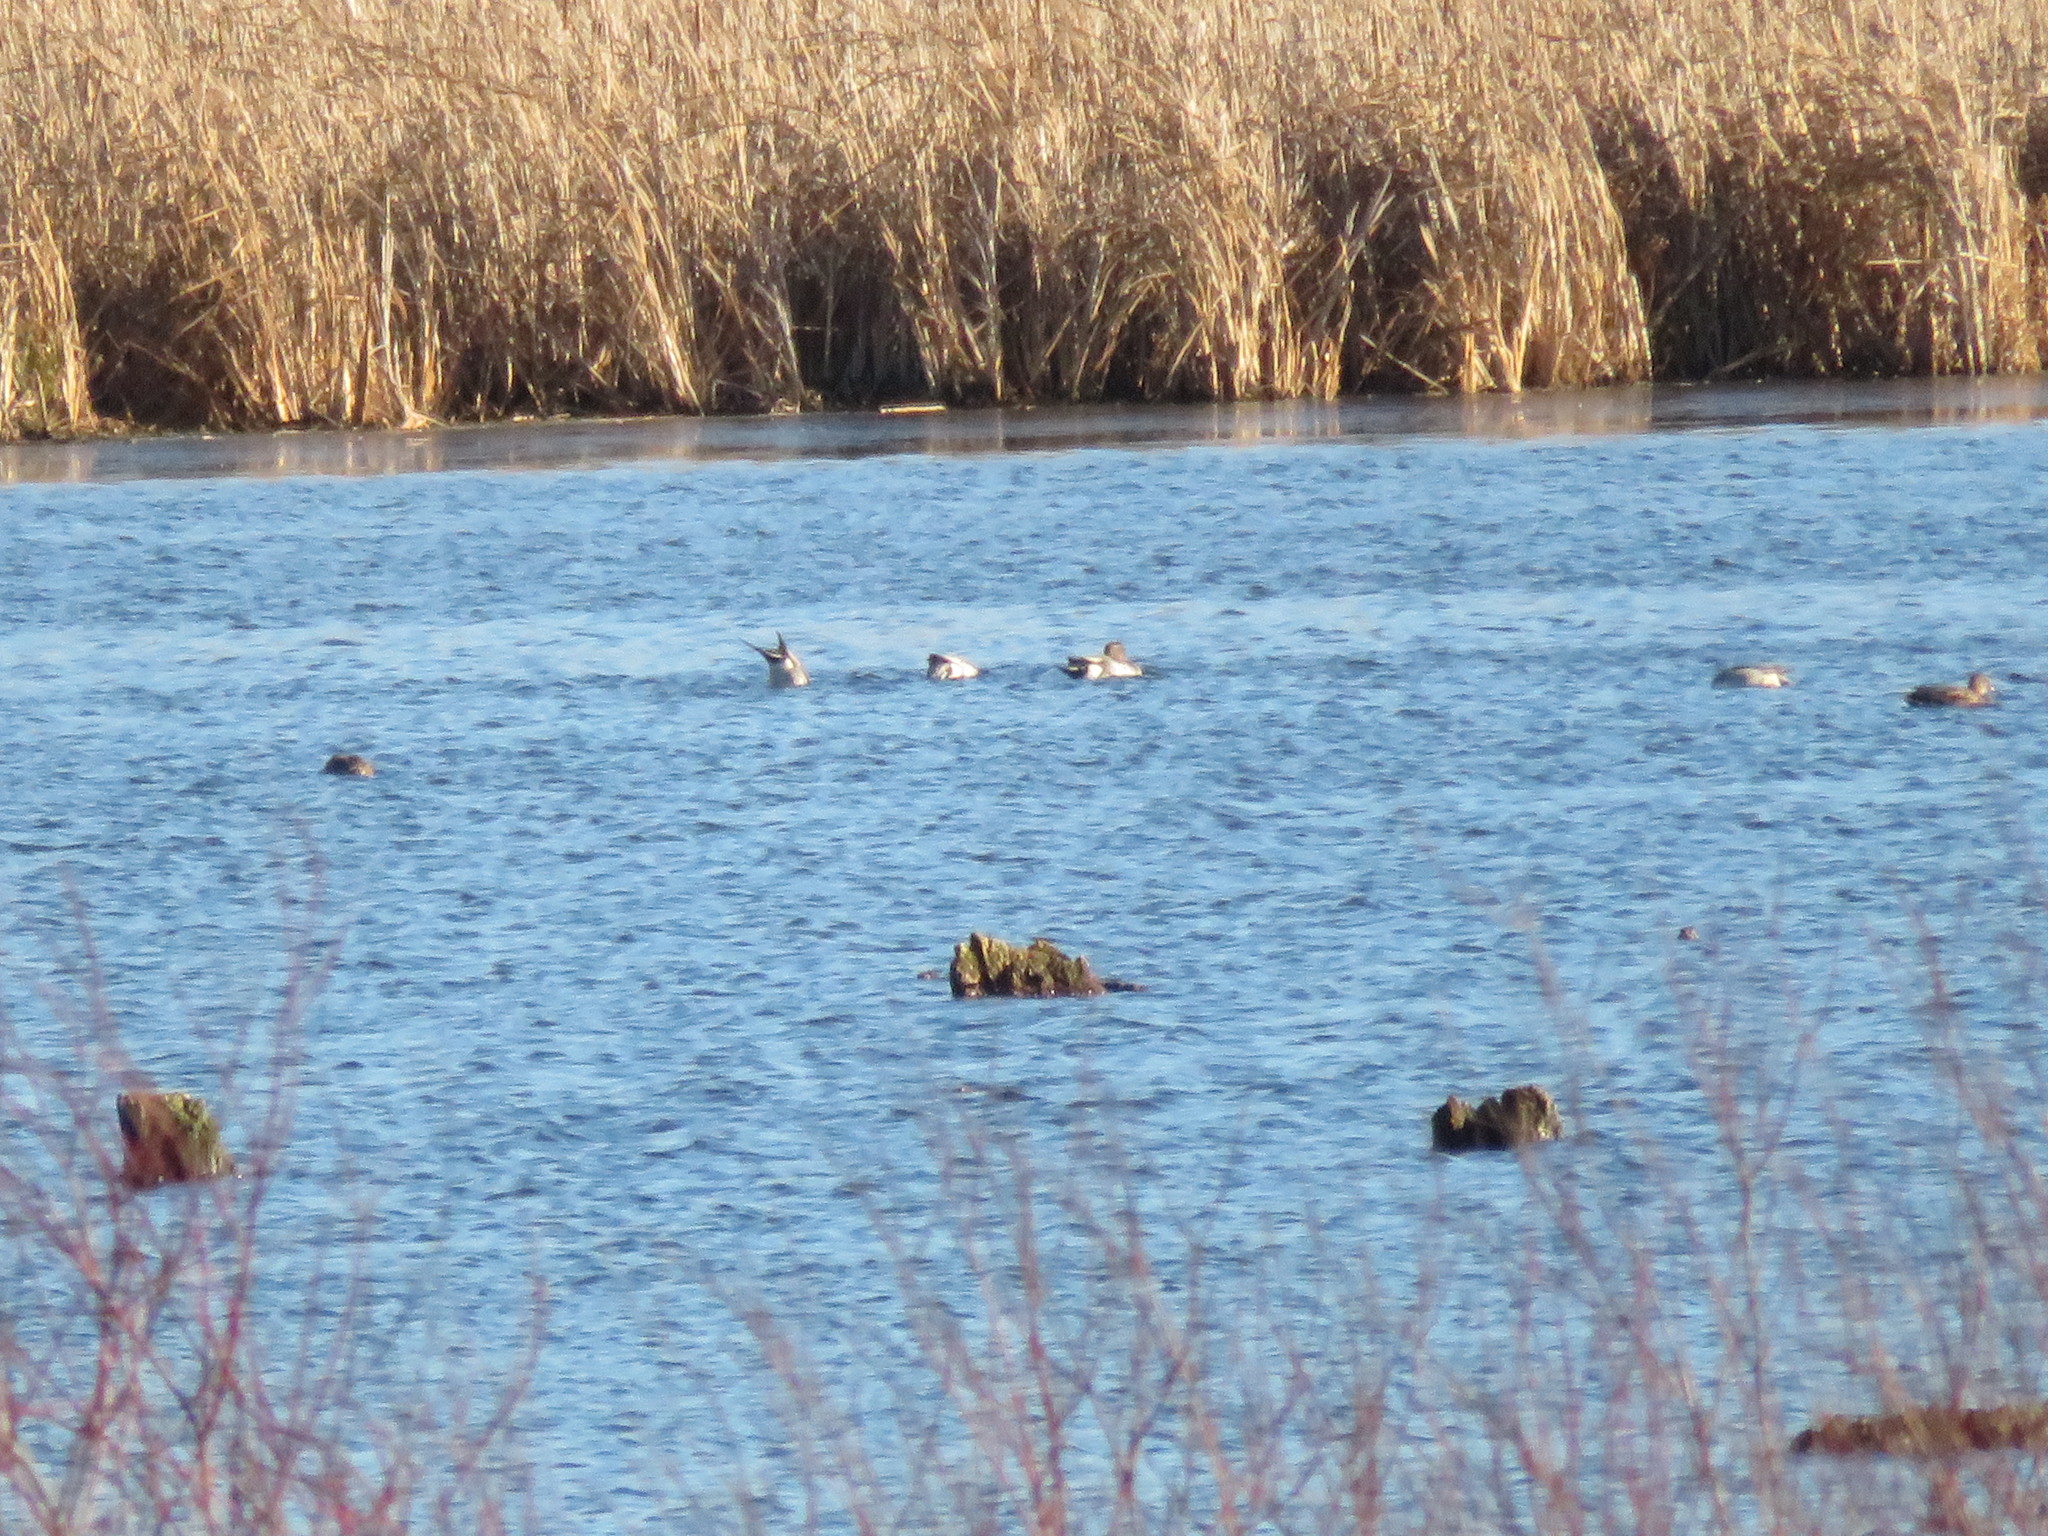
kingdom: Animalia
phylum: Chordata
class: Aves
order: Anseriformes
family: Anatidae
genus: Anas
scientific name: Anas acuta
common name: Northern pintail
